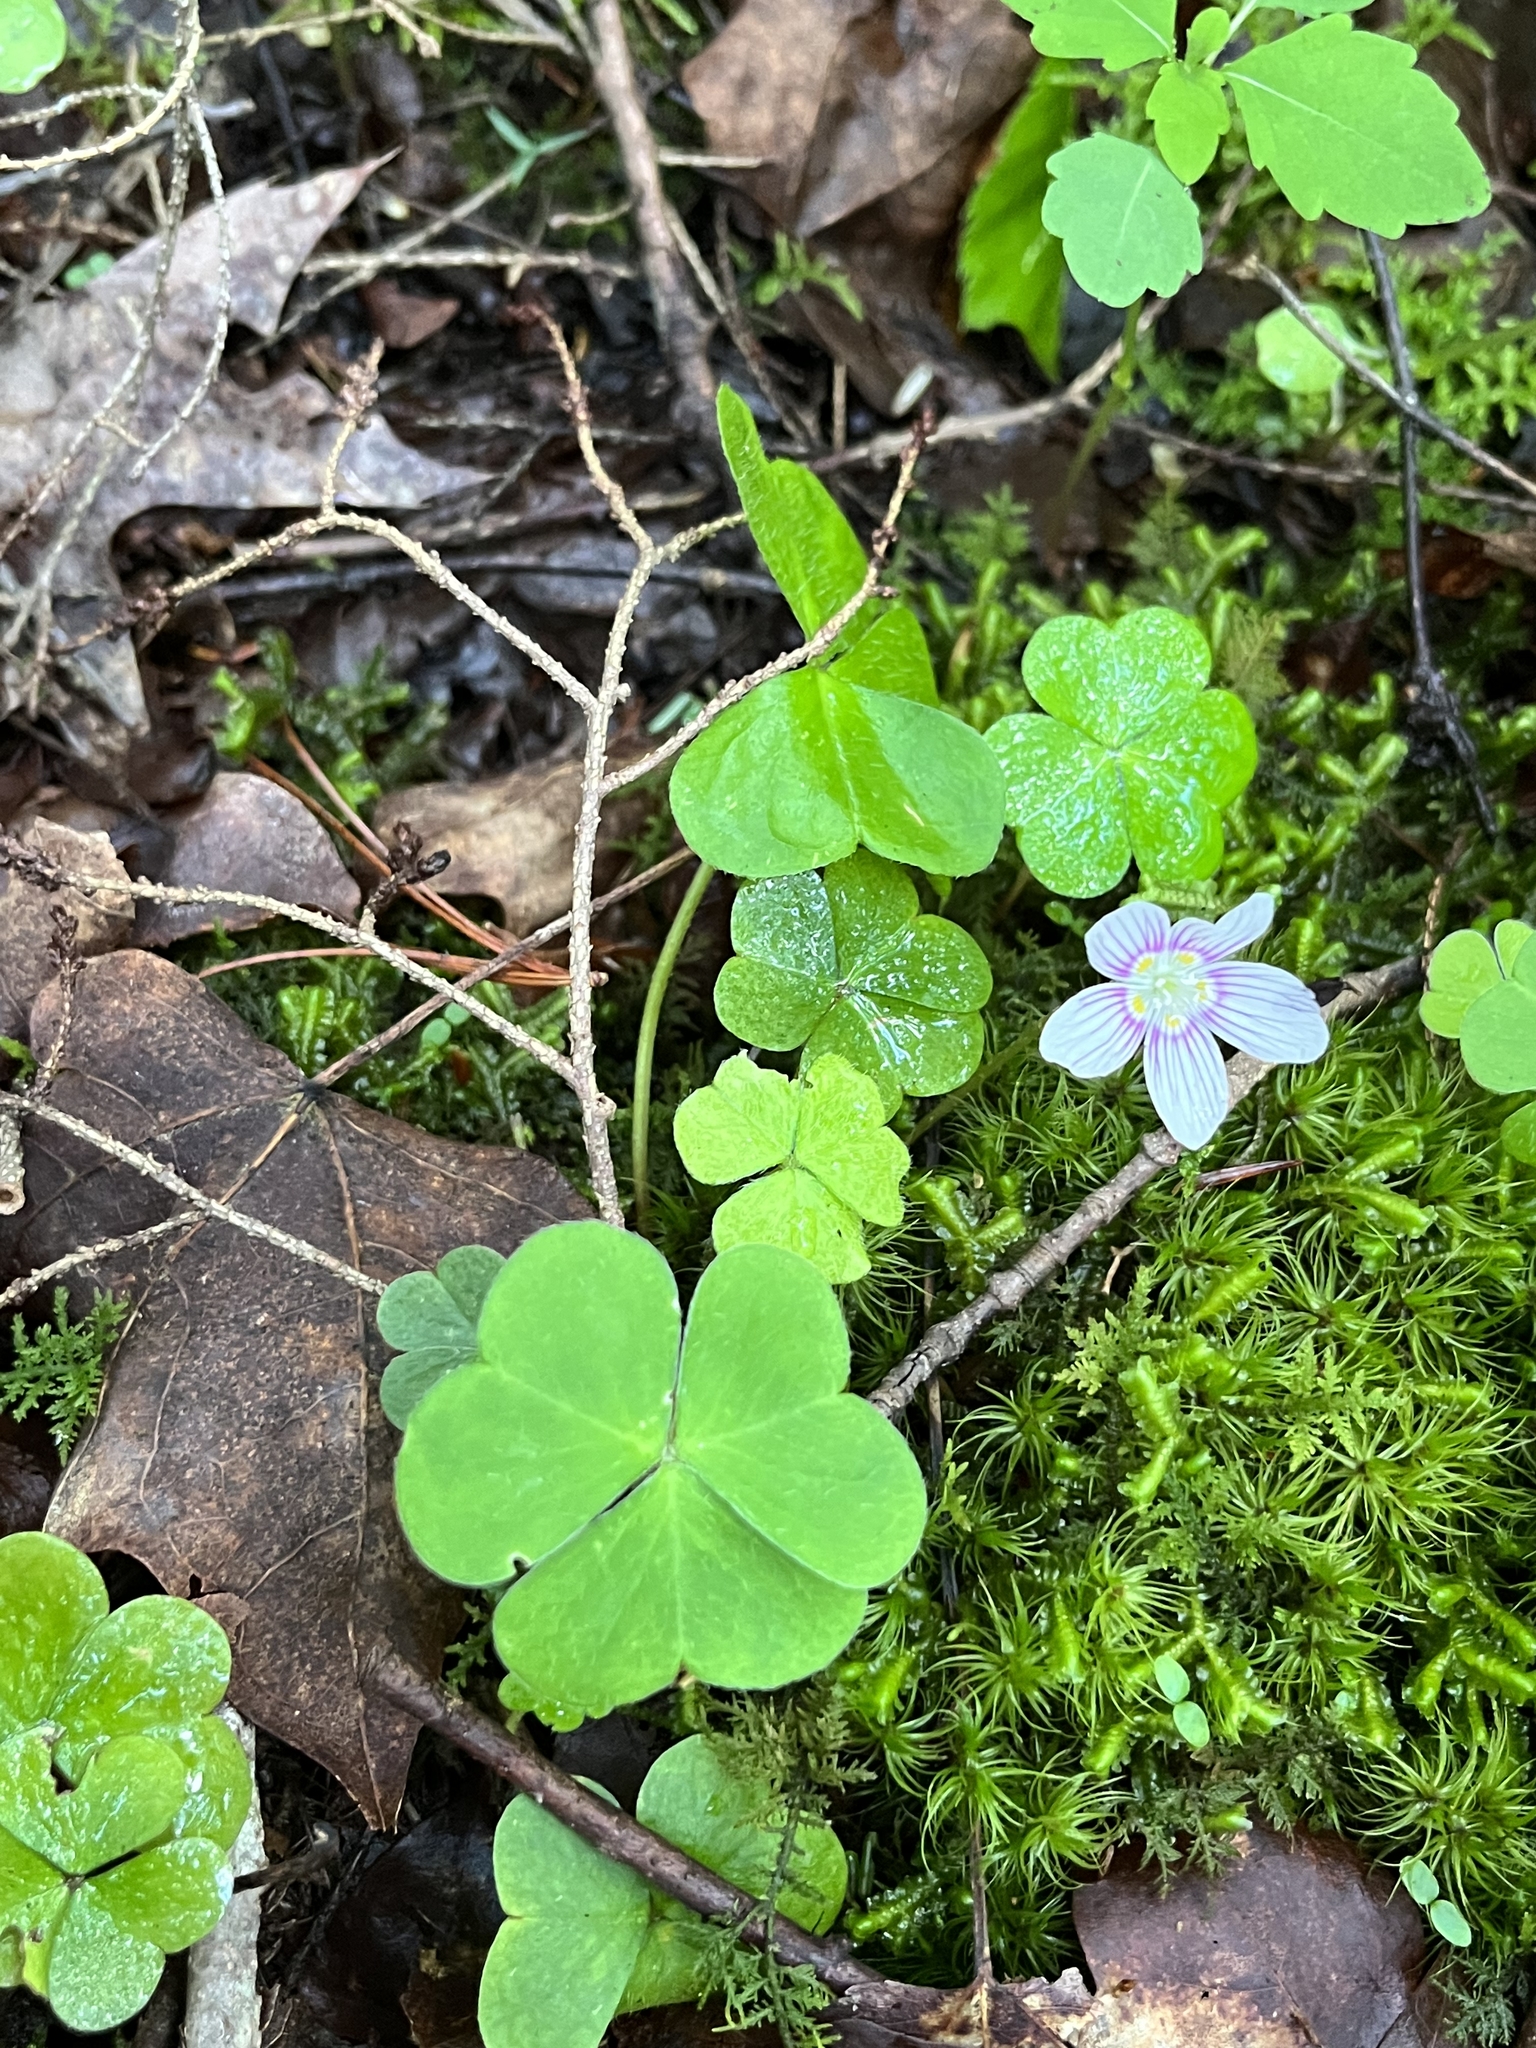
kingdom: Plantae
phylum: Tracheophyta
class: Magnoliopsida
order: Oxalidales
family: Oxalidaceae
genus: Oxalis
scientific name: Oxalis montana
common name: American wood-sorrel
